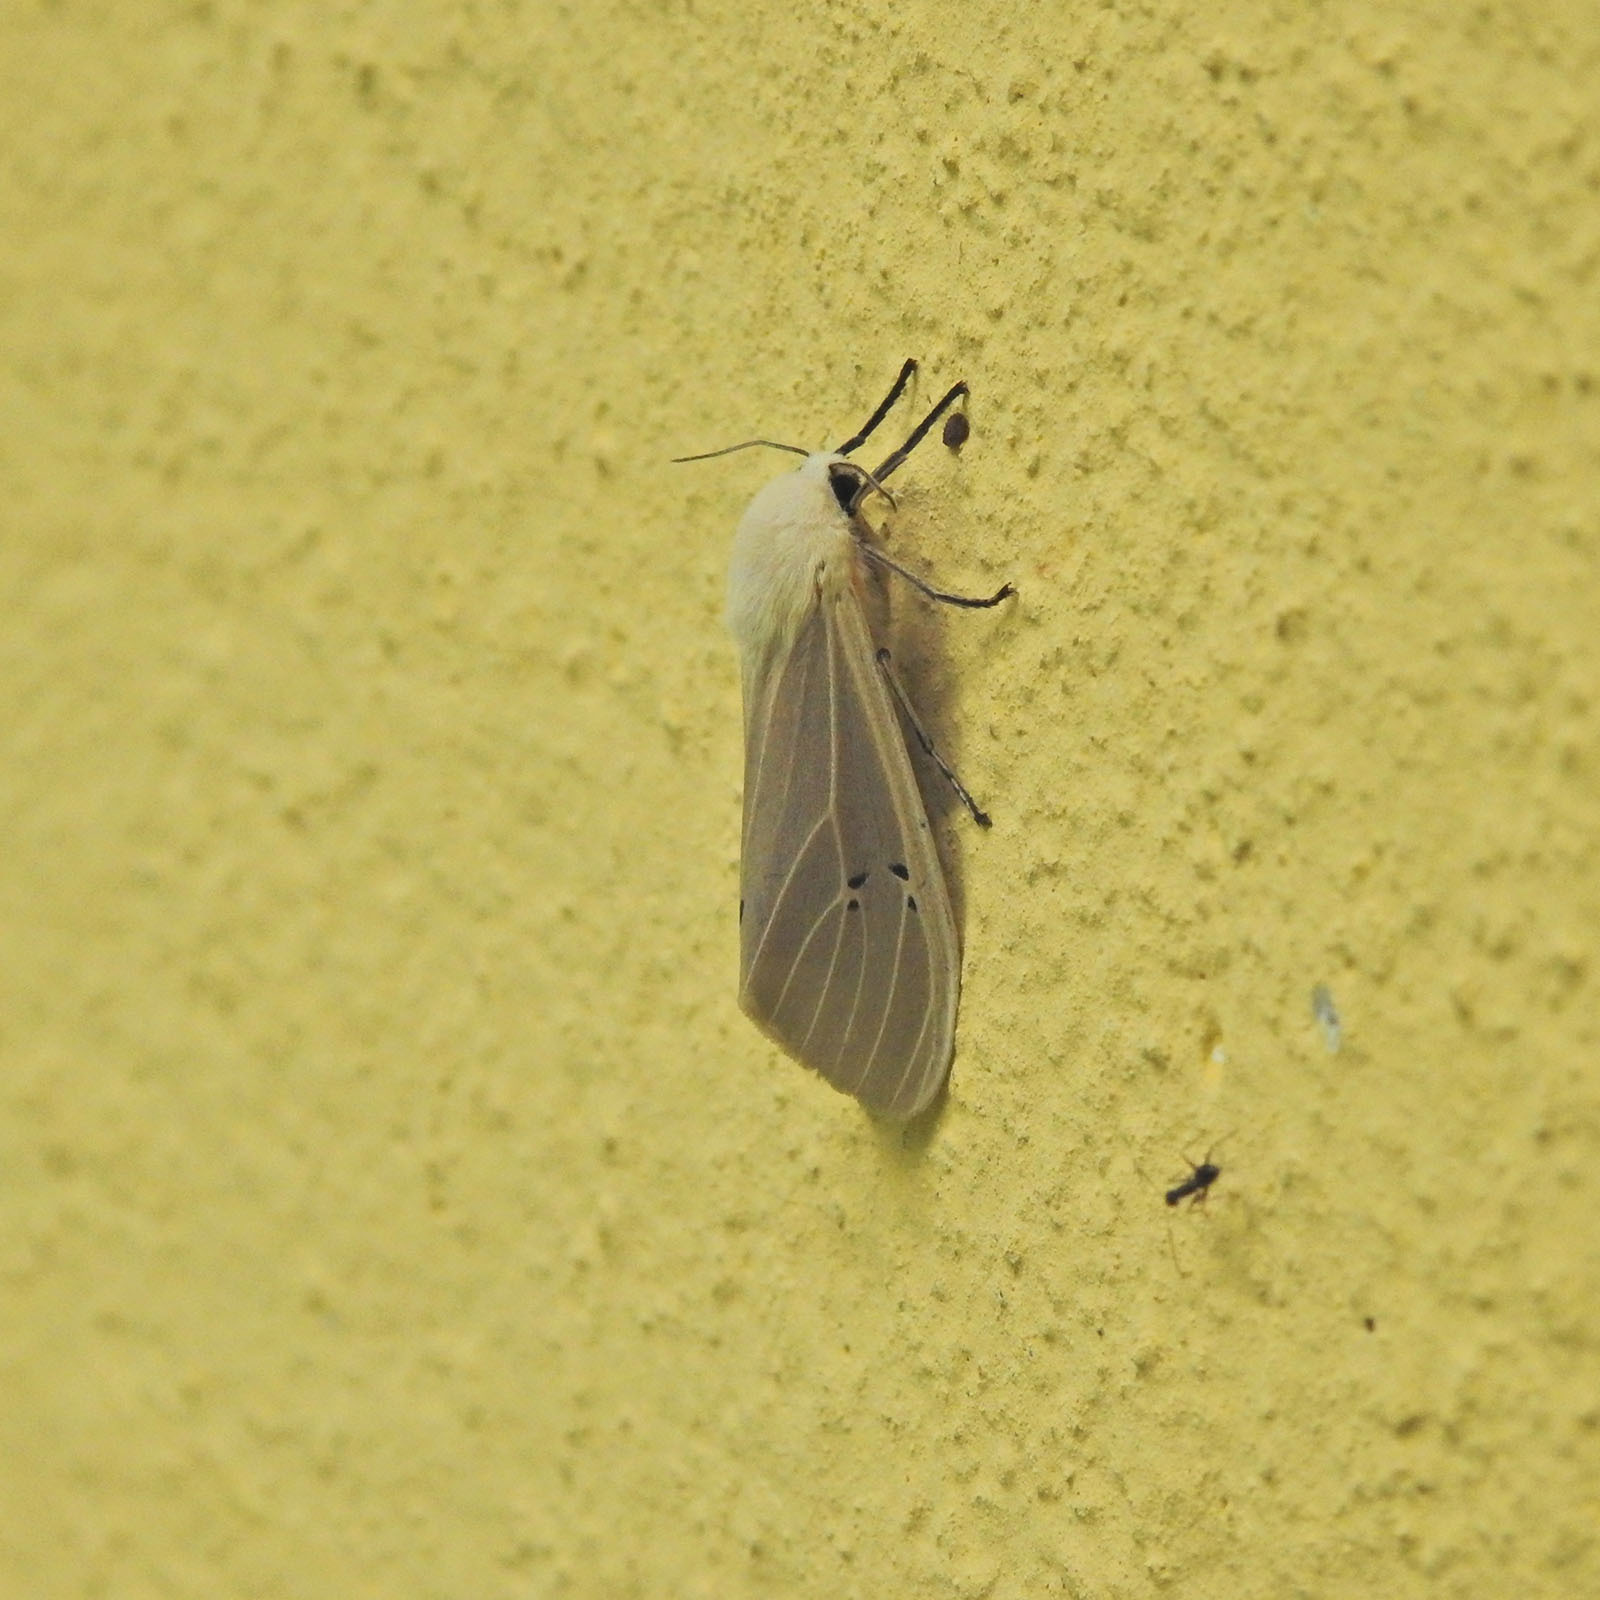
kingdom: Animalia
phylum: Arthropoda
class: Insecta
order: Lepidoptera
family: Erebidae
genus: Creatonotos
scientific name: Creatonotos transiens
